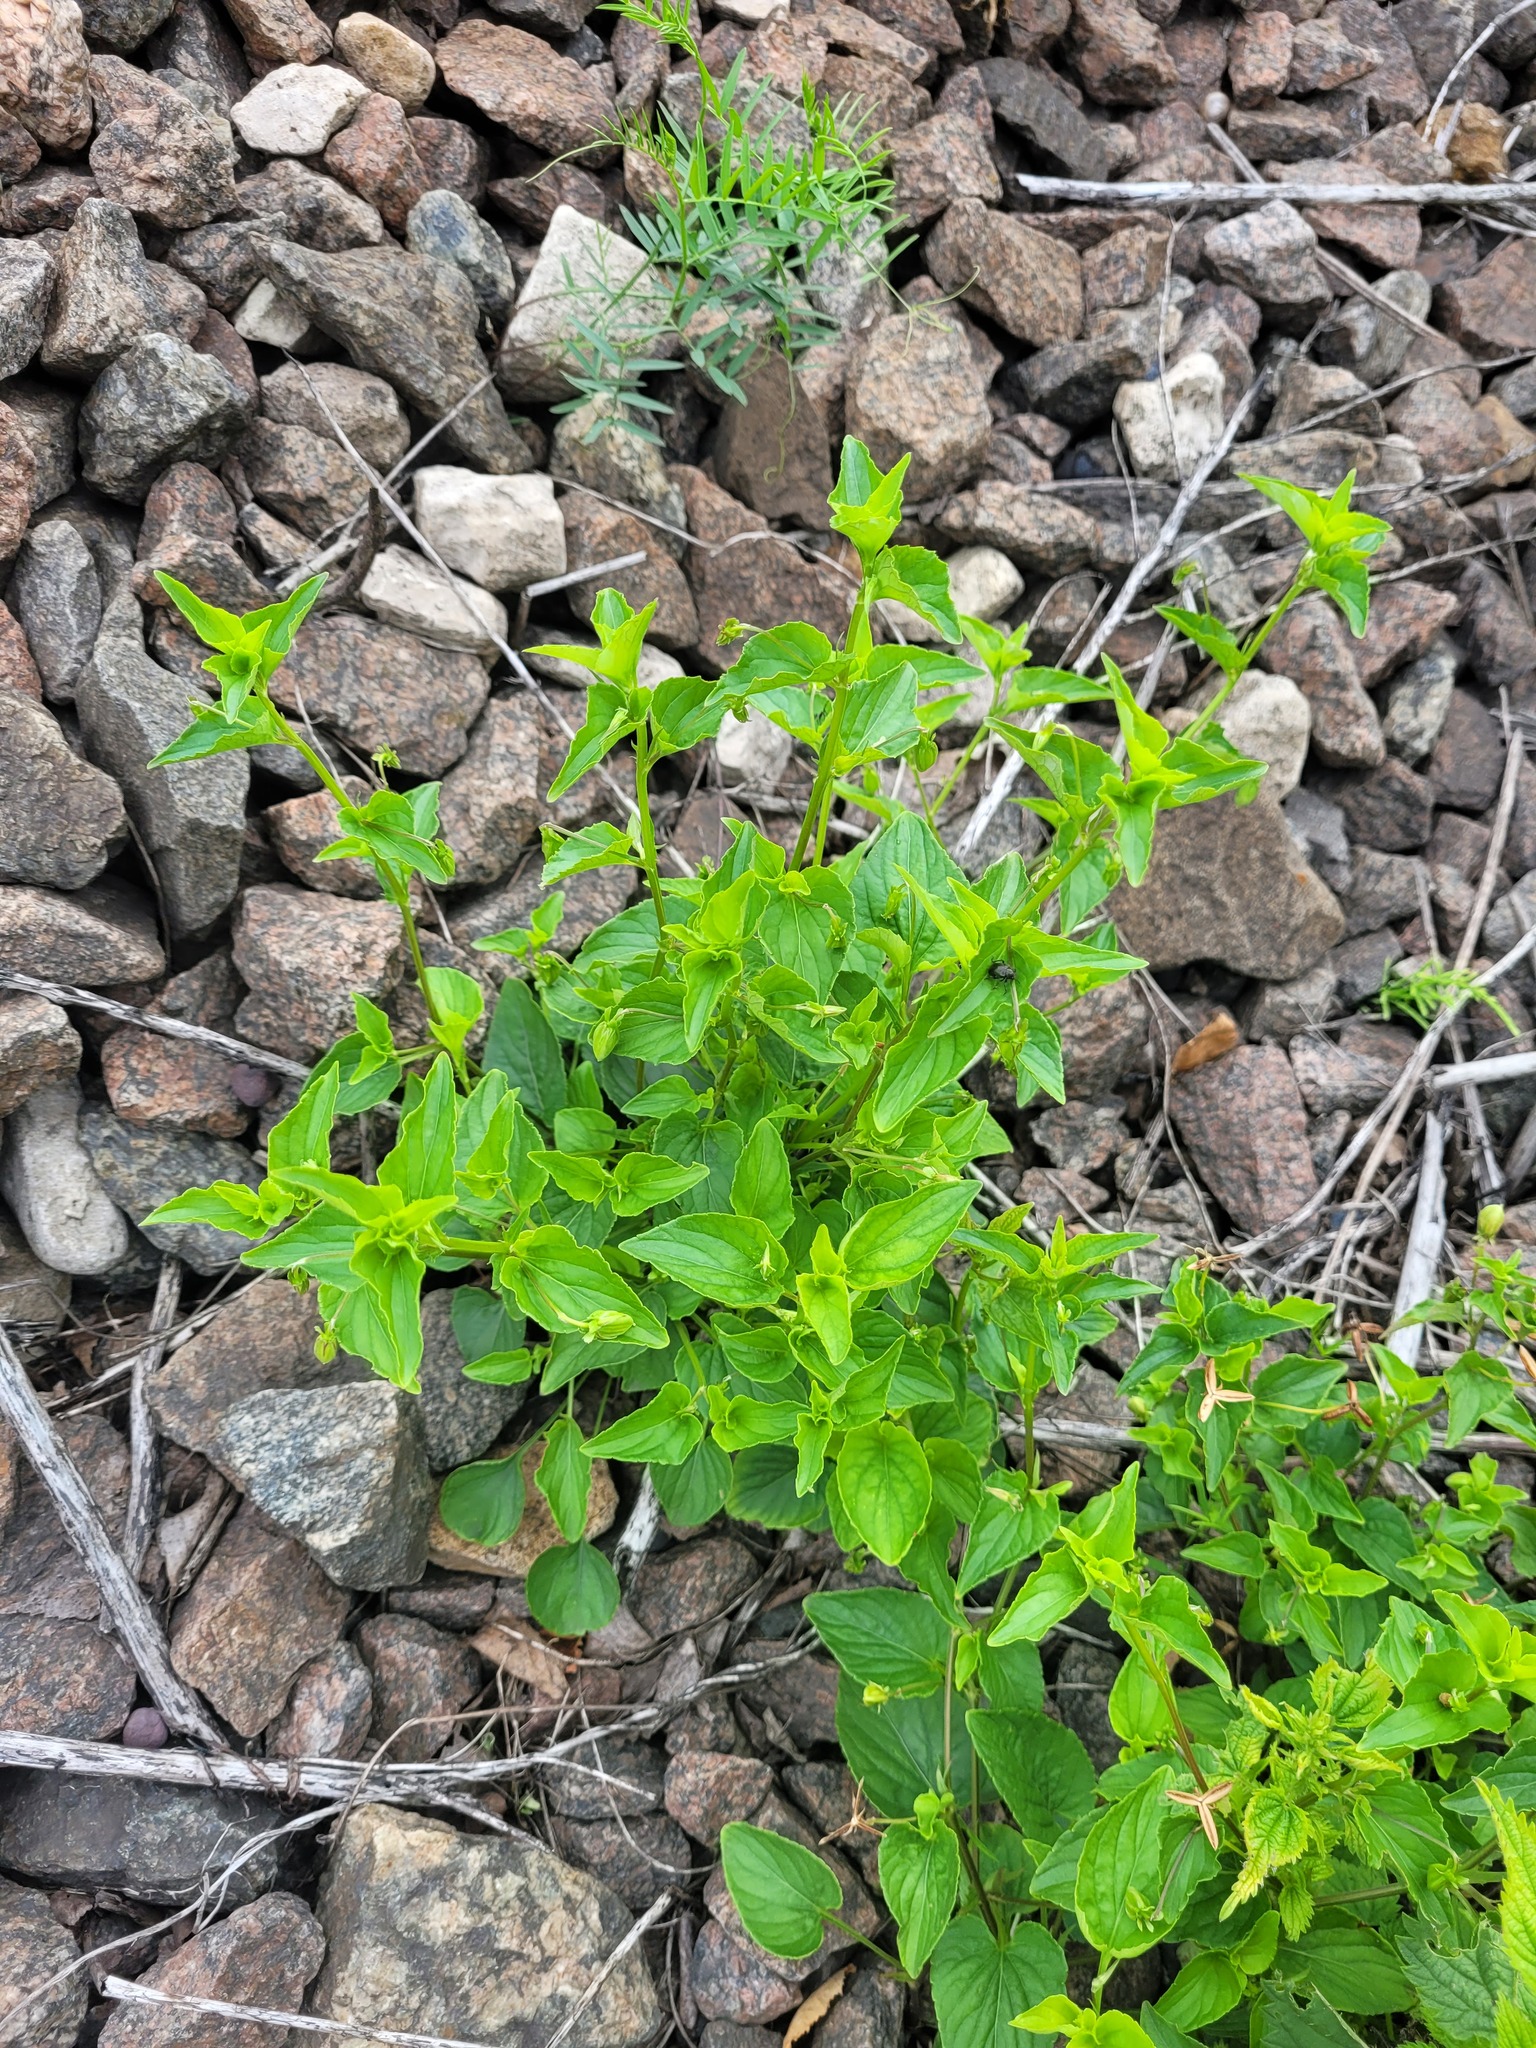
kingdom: Plantae
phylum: Tracheophyta
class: Magnoliopsida
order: Malpighiales
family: Violaceae
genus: Viola
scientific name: Viola canina
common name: Heath dog-violet
